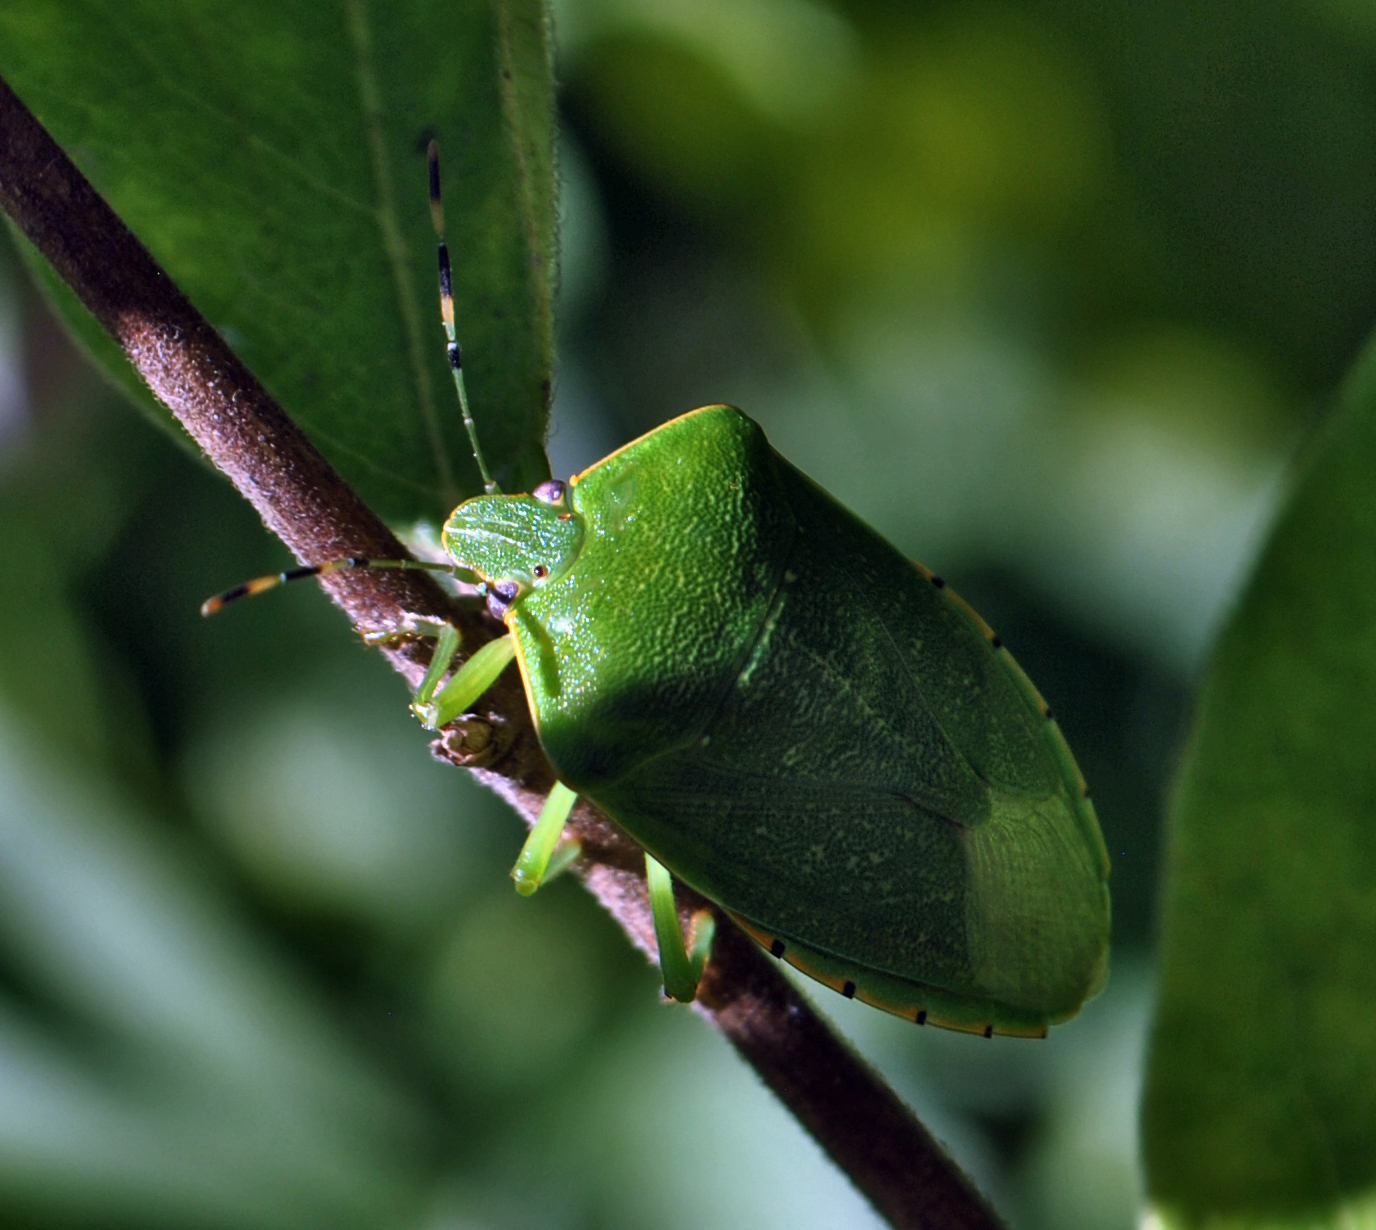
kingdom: Animalia
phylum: Arthropoda
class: Insecta
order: Hemiptera
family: Pentatomidae
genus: Chinavia
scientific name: Chinavia hilaris
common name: Green stink bug
